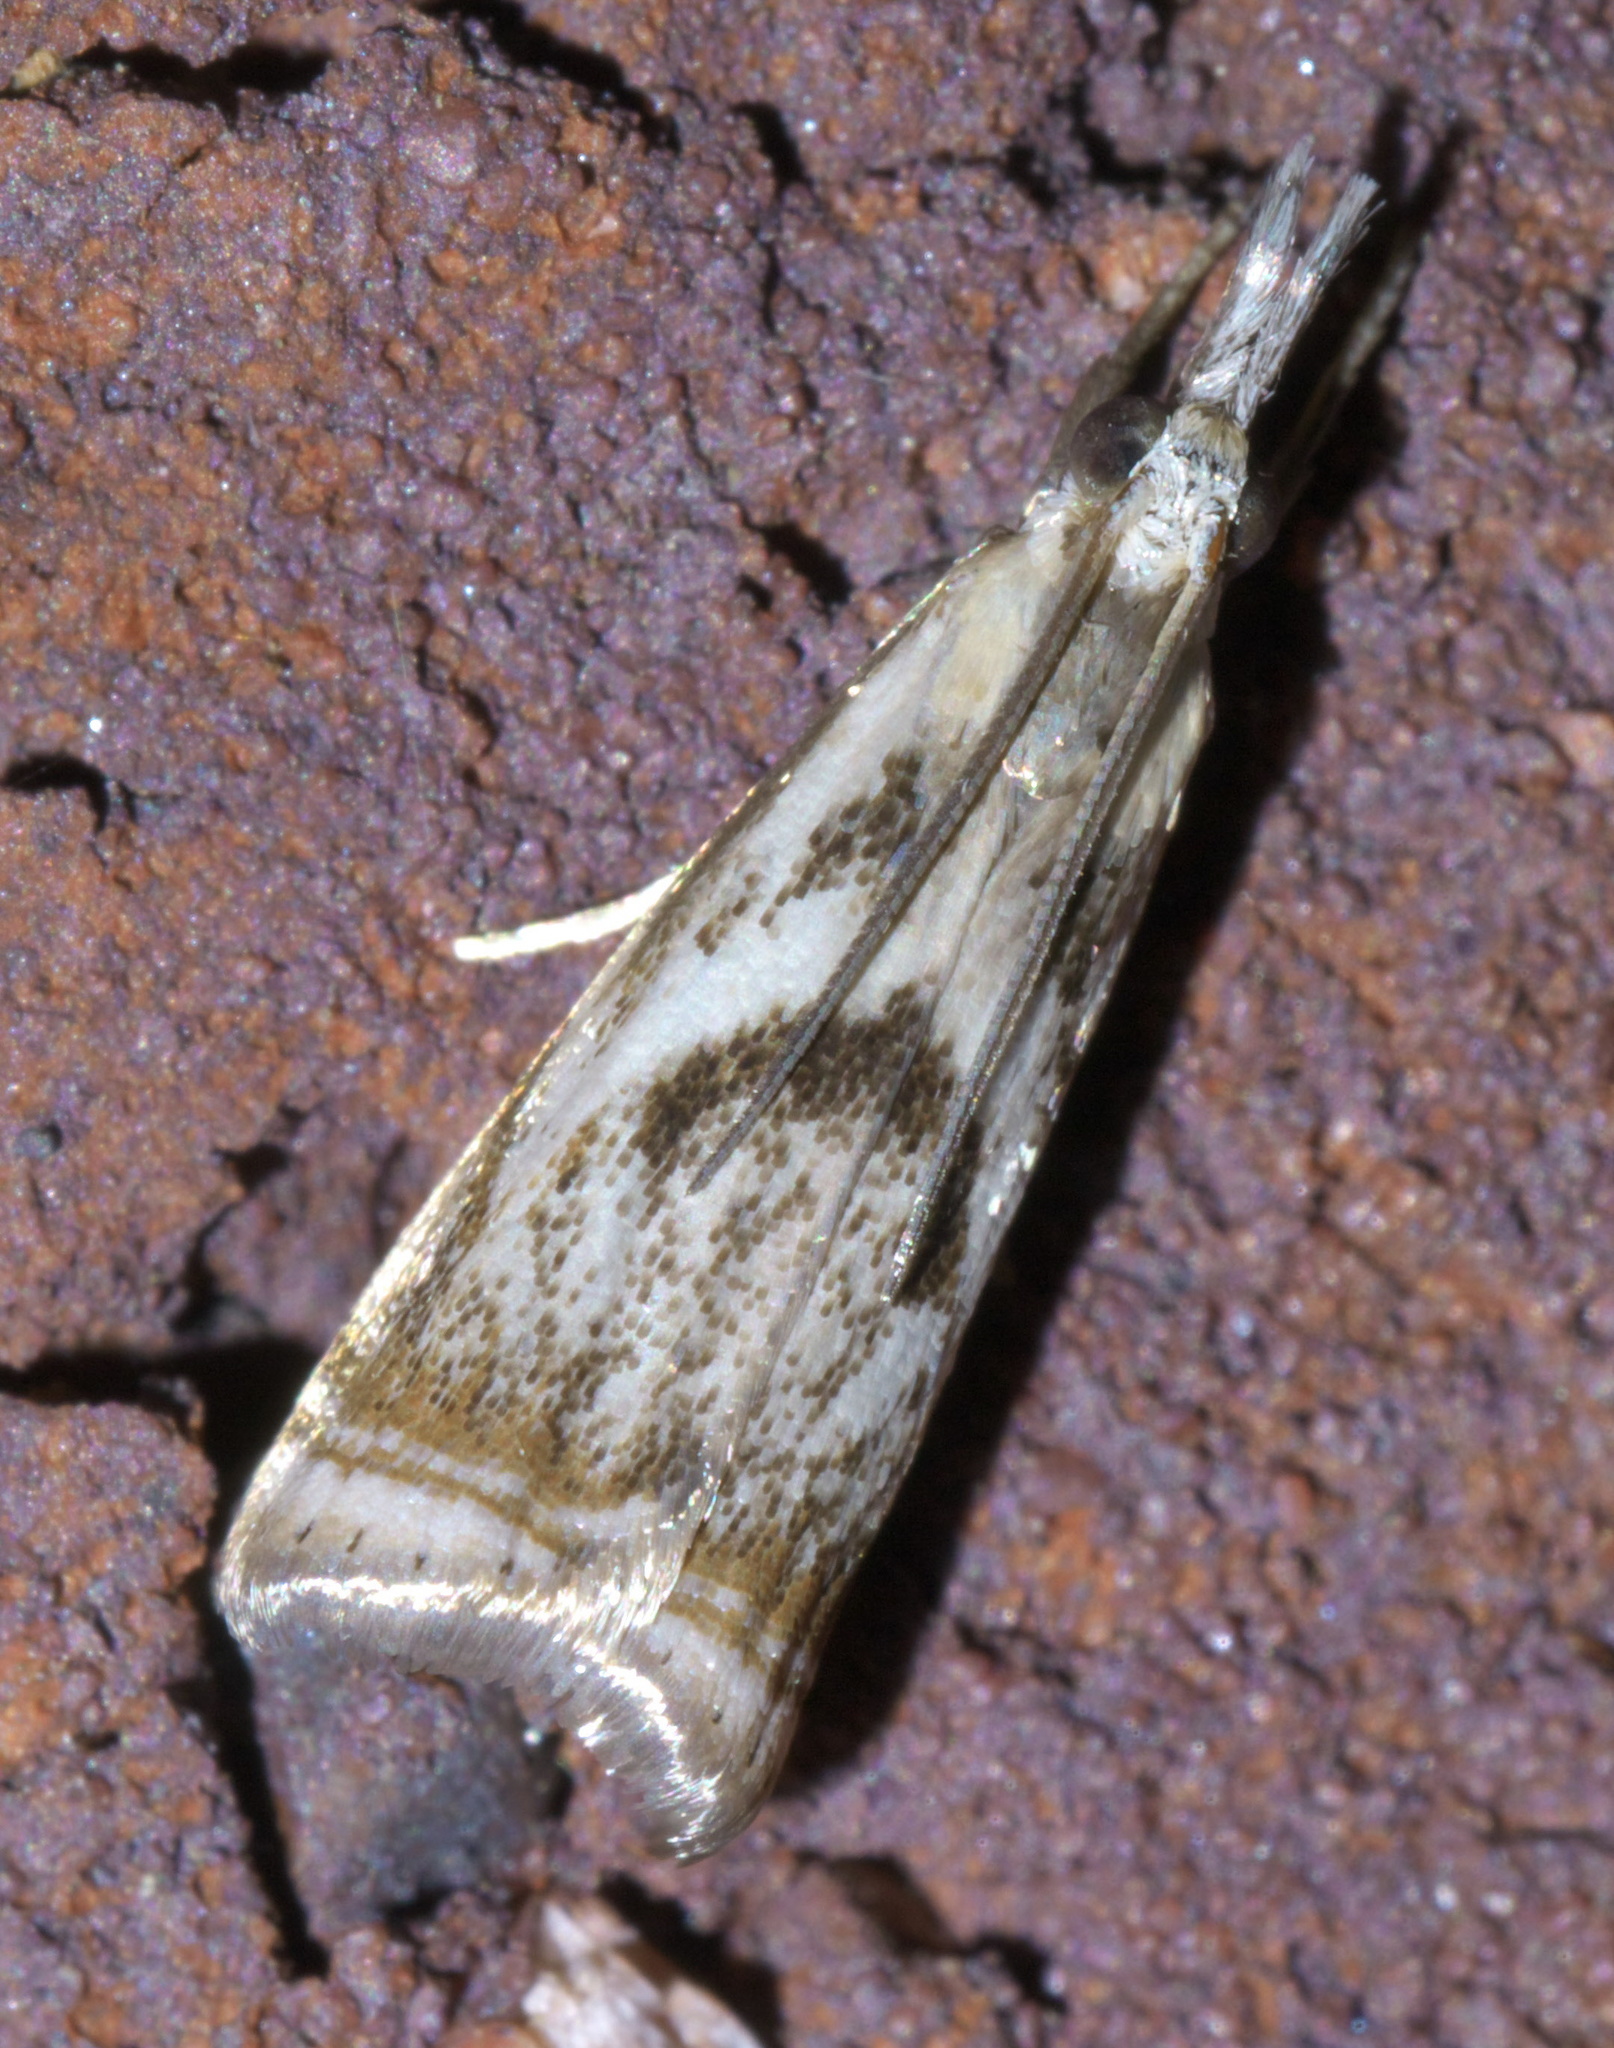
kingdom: Animalia
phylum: Arthropoda
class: Insecta
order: Lepidoptera
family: Crambidae
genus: Microcrambus
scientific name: Microcrambus elegans
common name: Elegant grass-veneer
